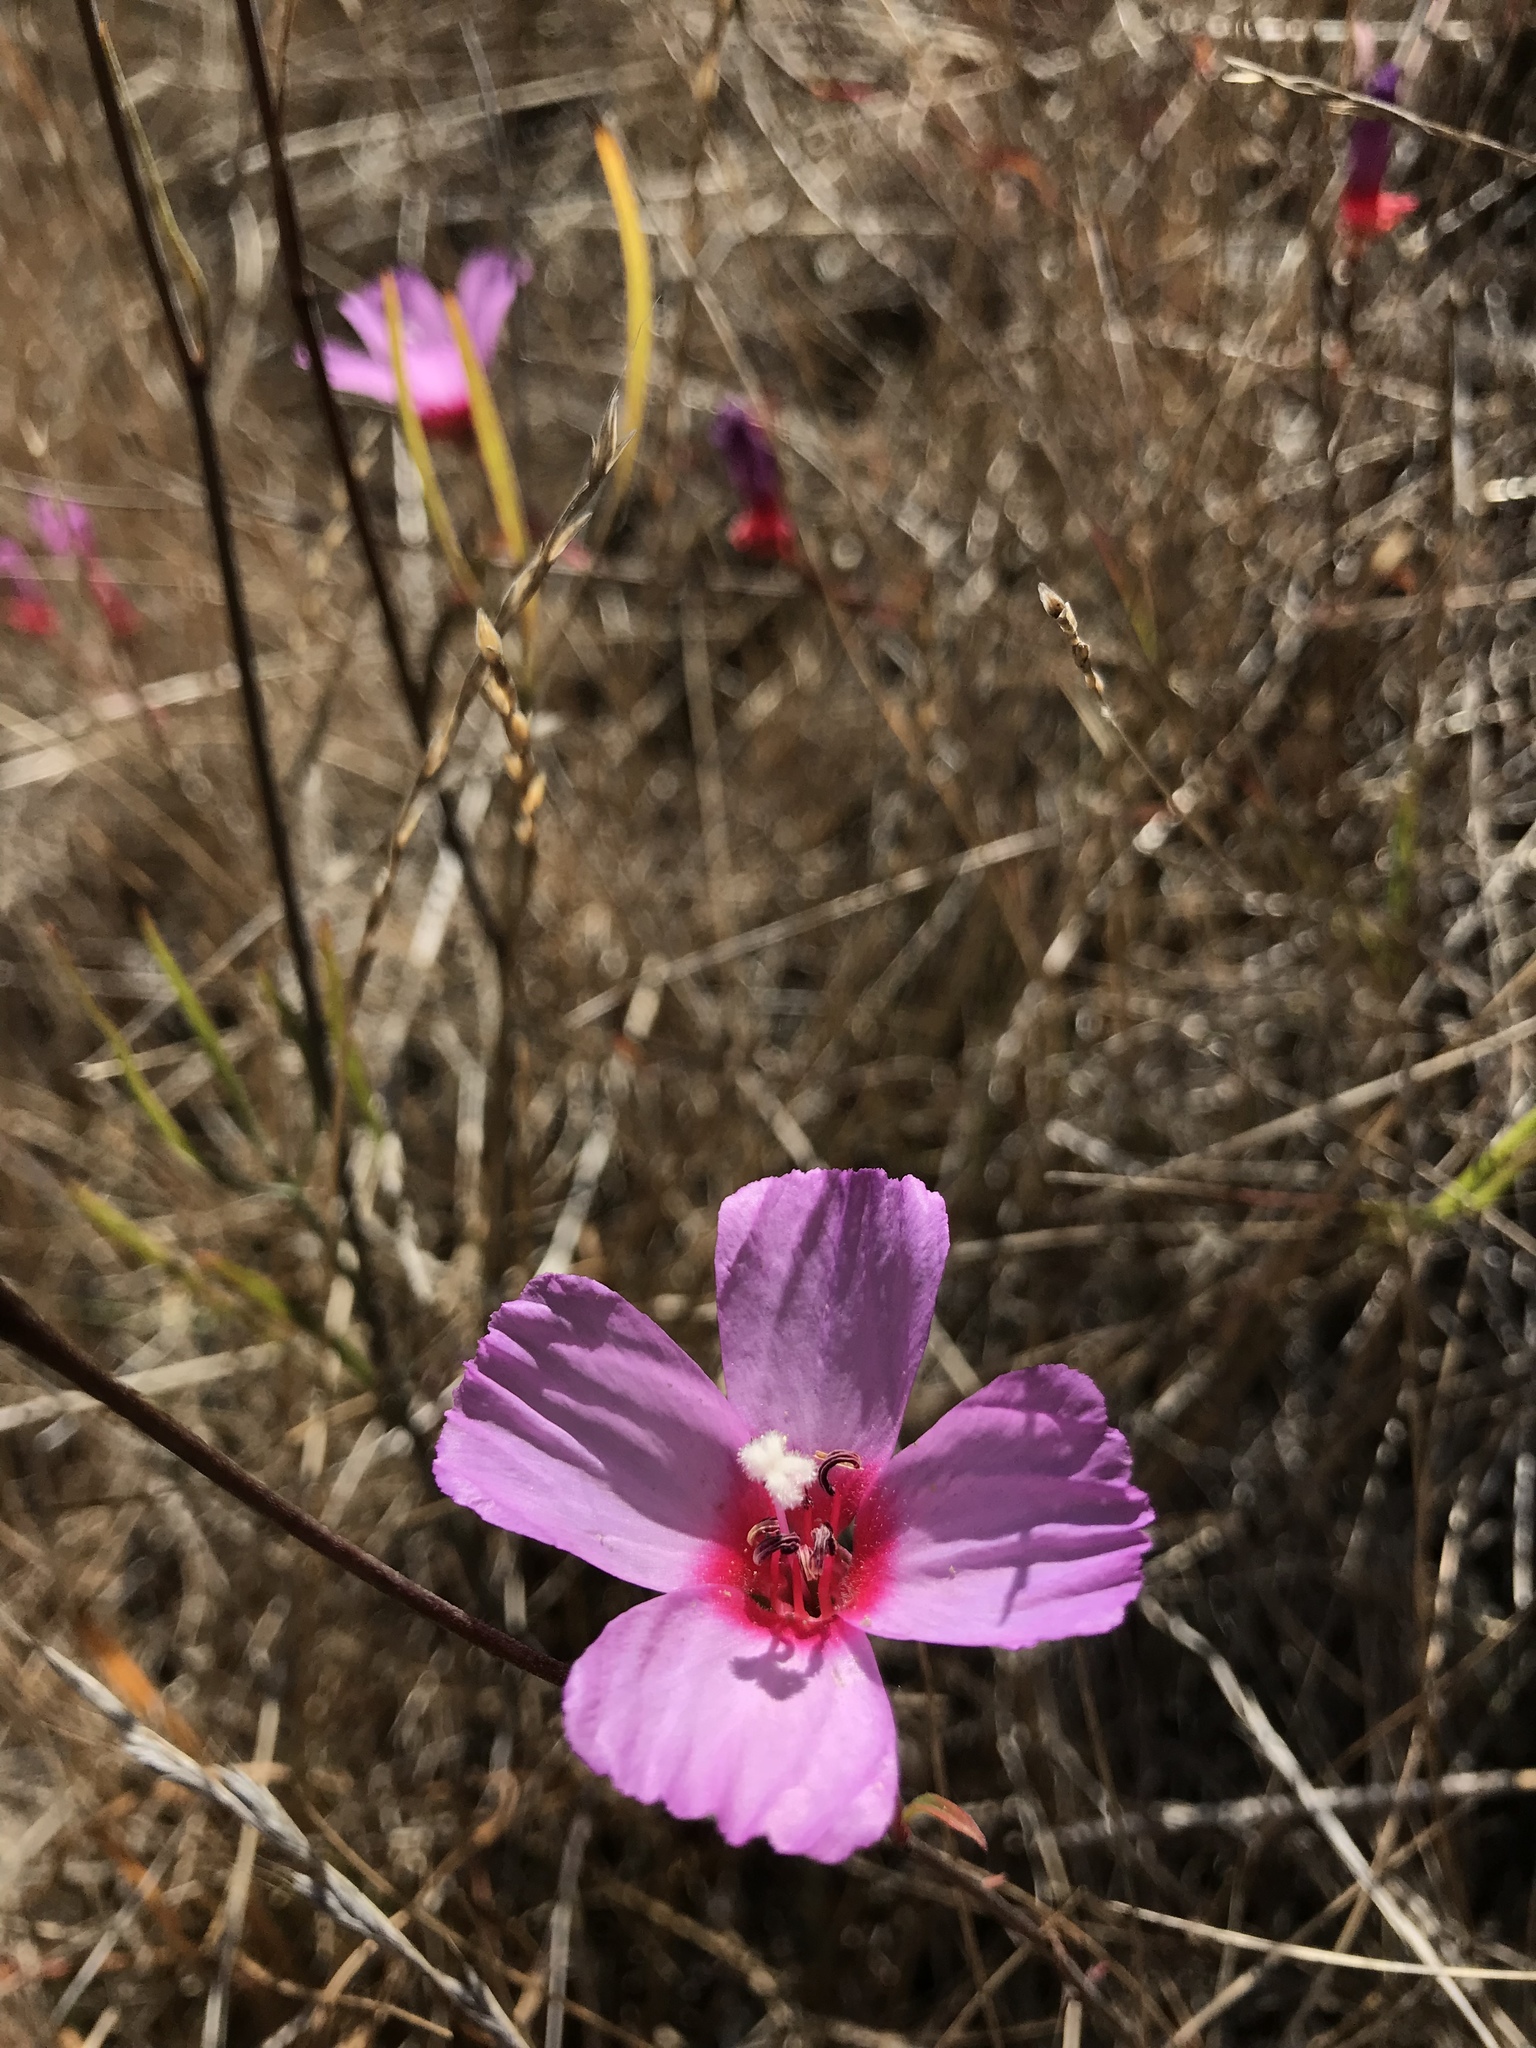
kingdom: Plantae
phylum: Tracheophyta
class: Magnoliopsida
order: Myrtales
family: Onagraceae
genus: Clarkia
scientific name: Clarkia rubicunda
